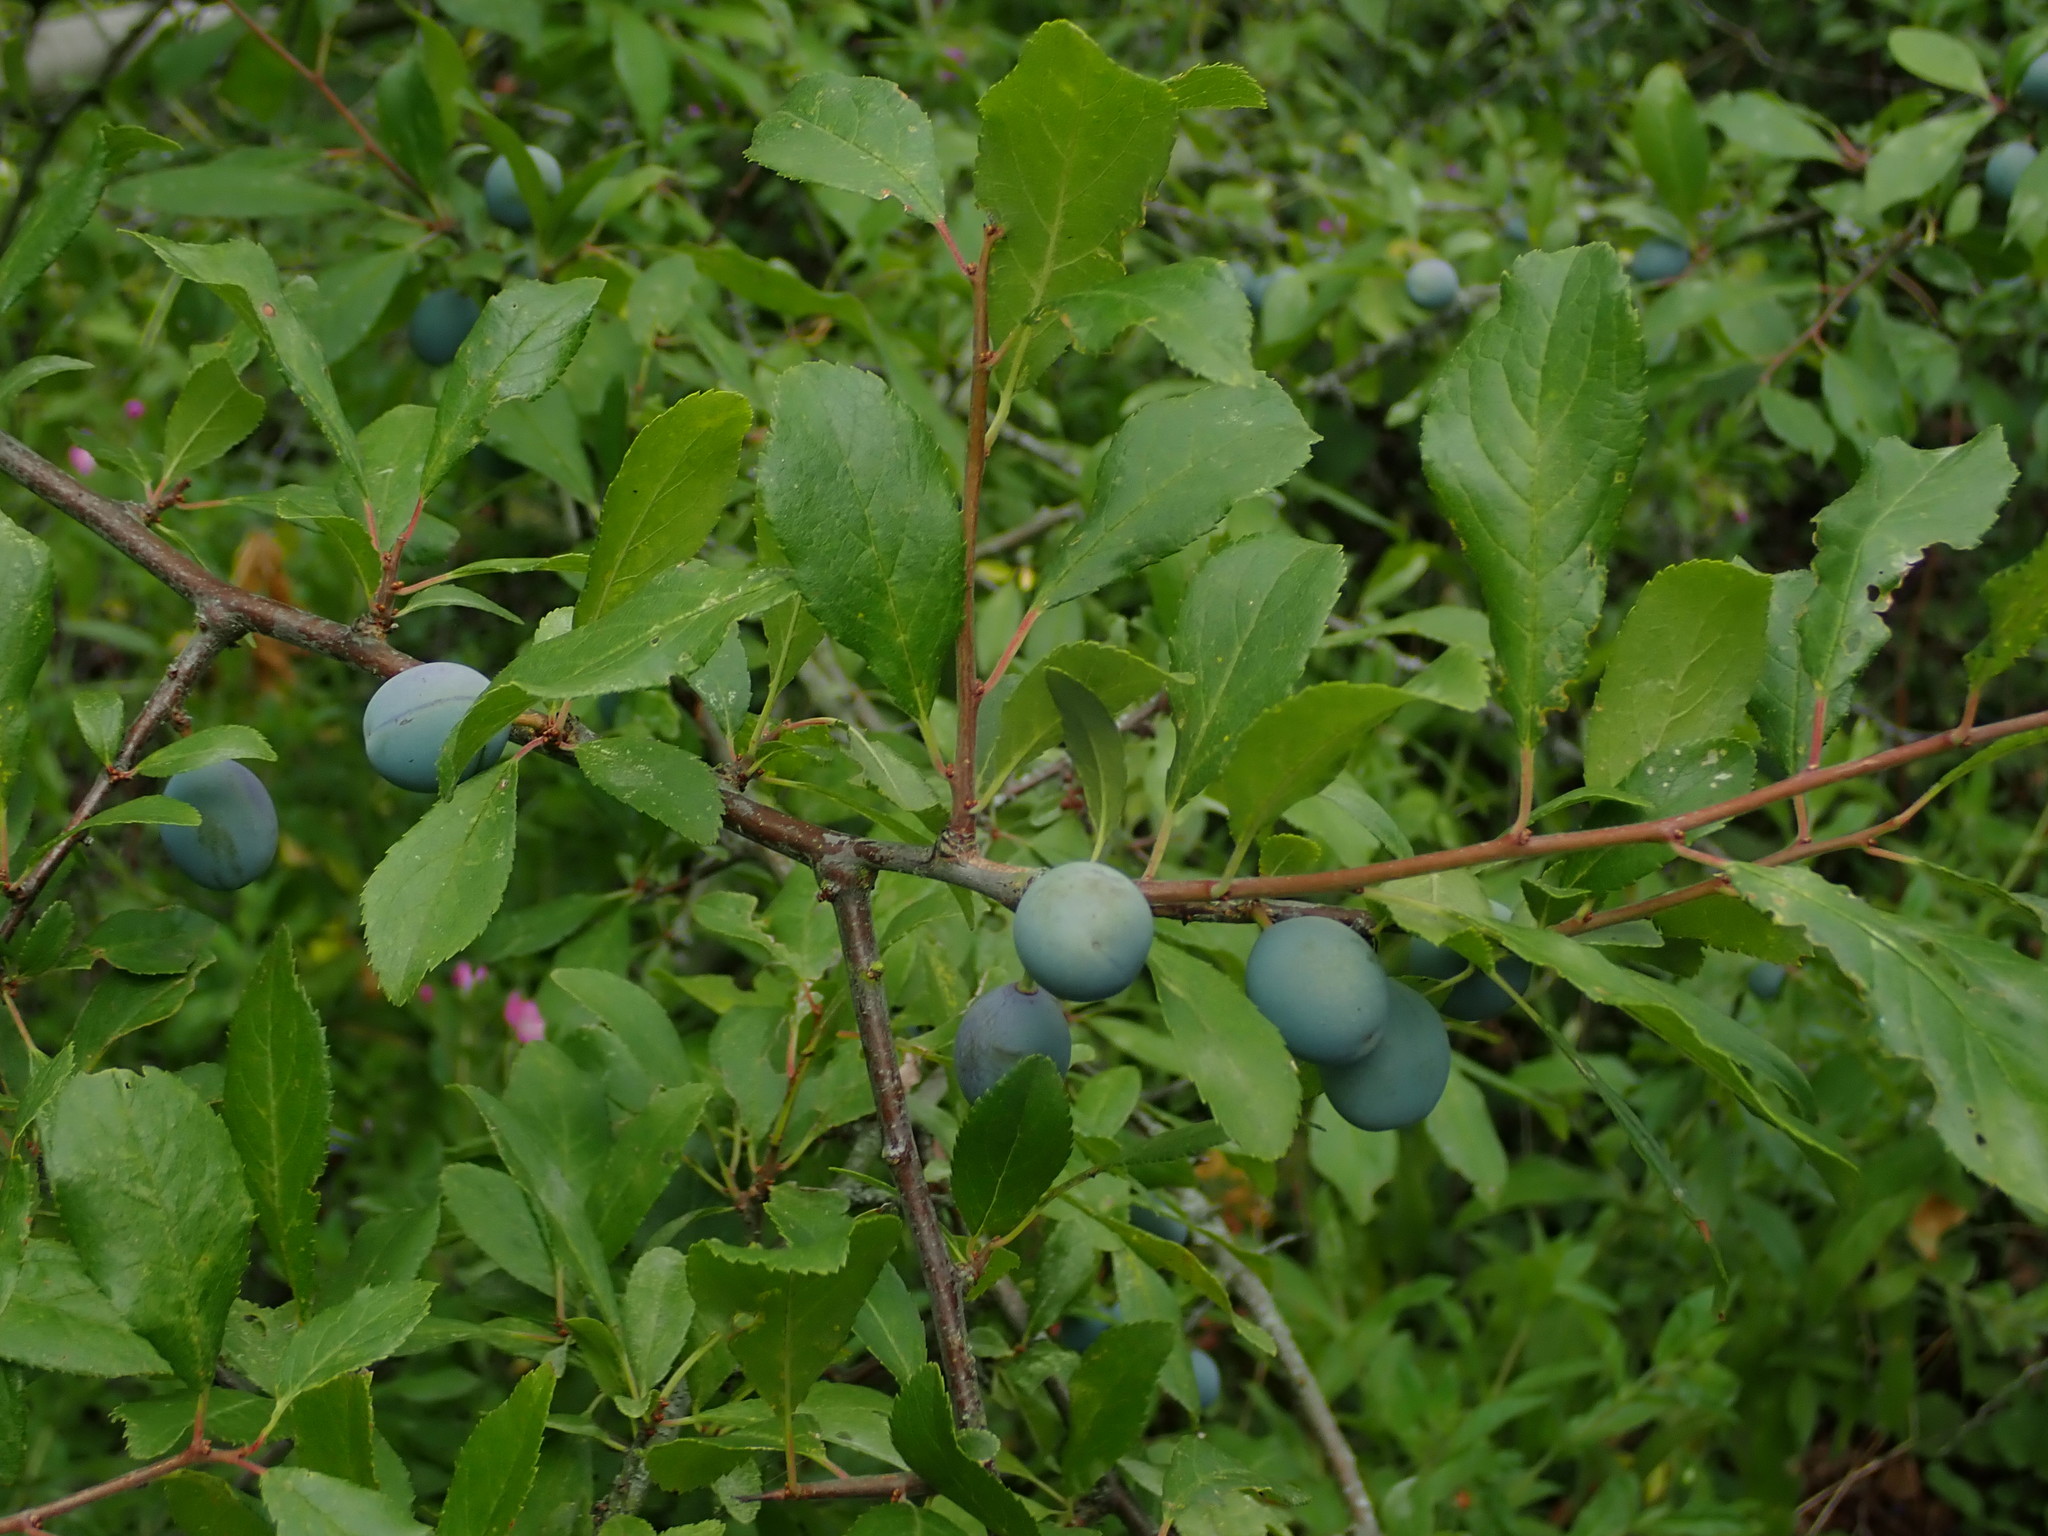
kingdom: Plantae
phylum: Tracheophyta
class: Magnoliopsida
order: Rosales
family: Rosaceae
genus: Prunus
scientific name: Prunus spinosa
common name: Blackthorn
